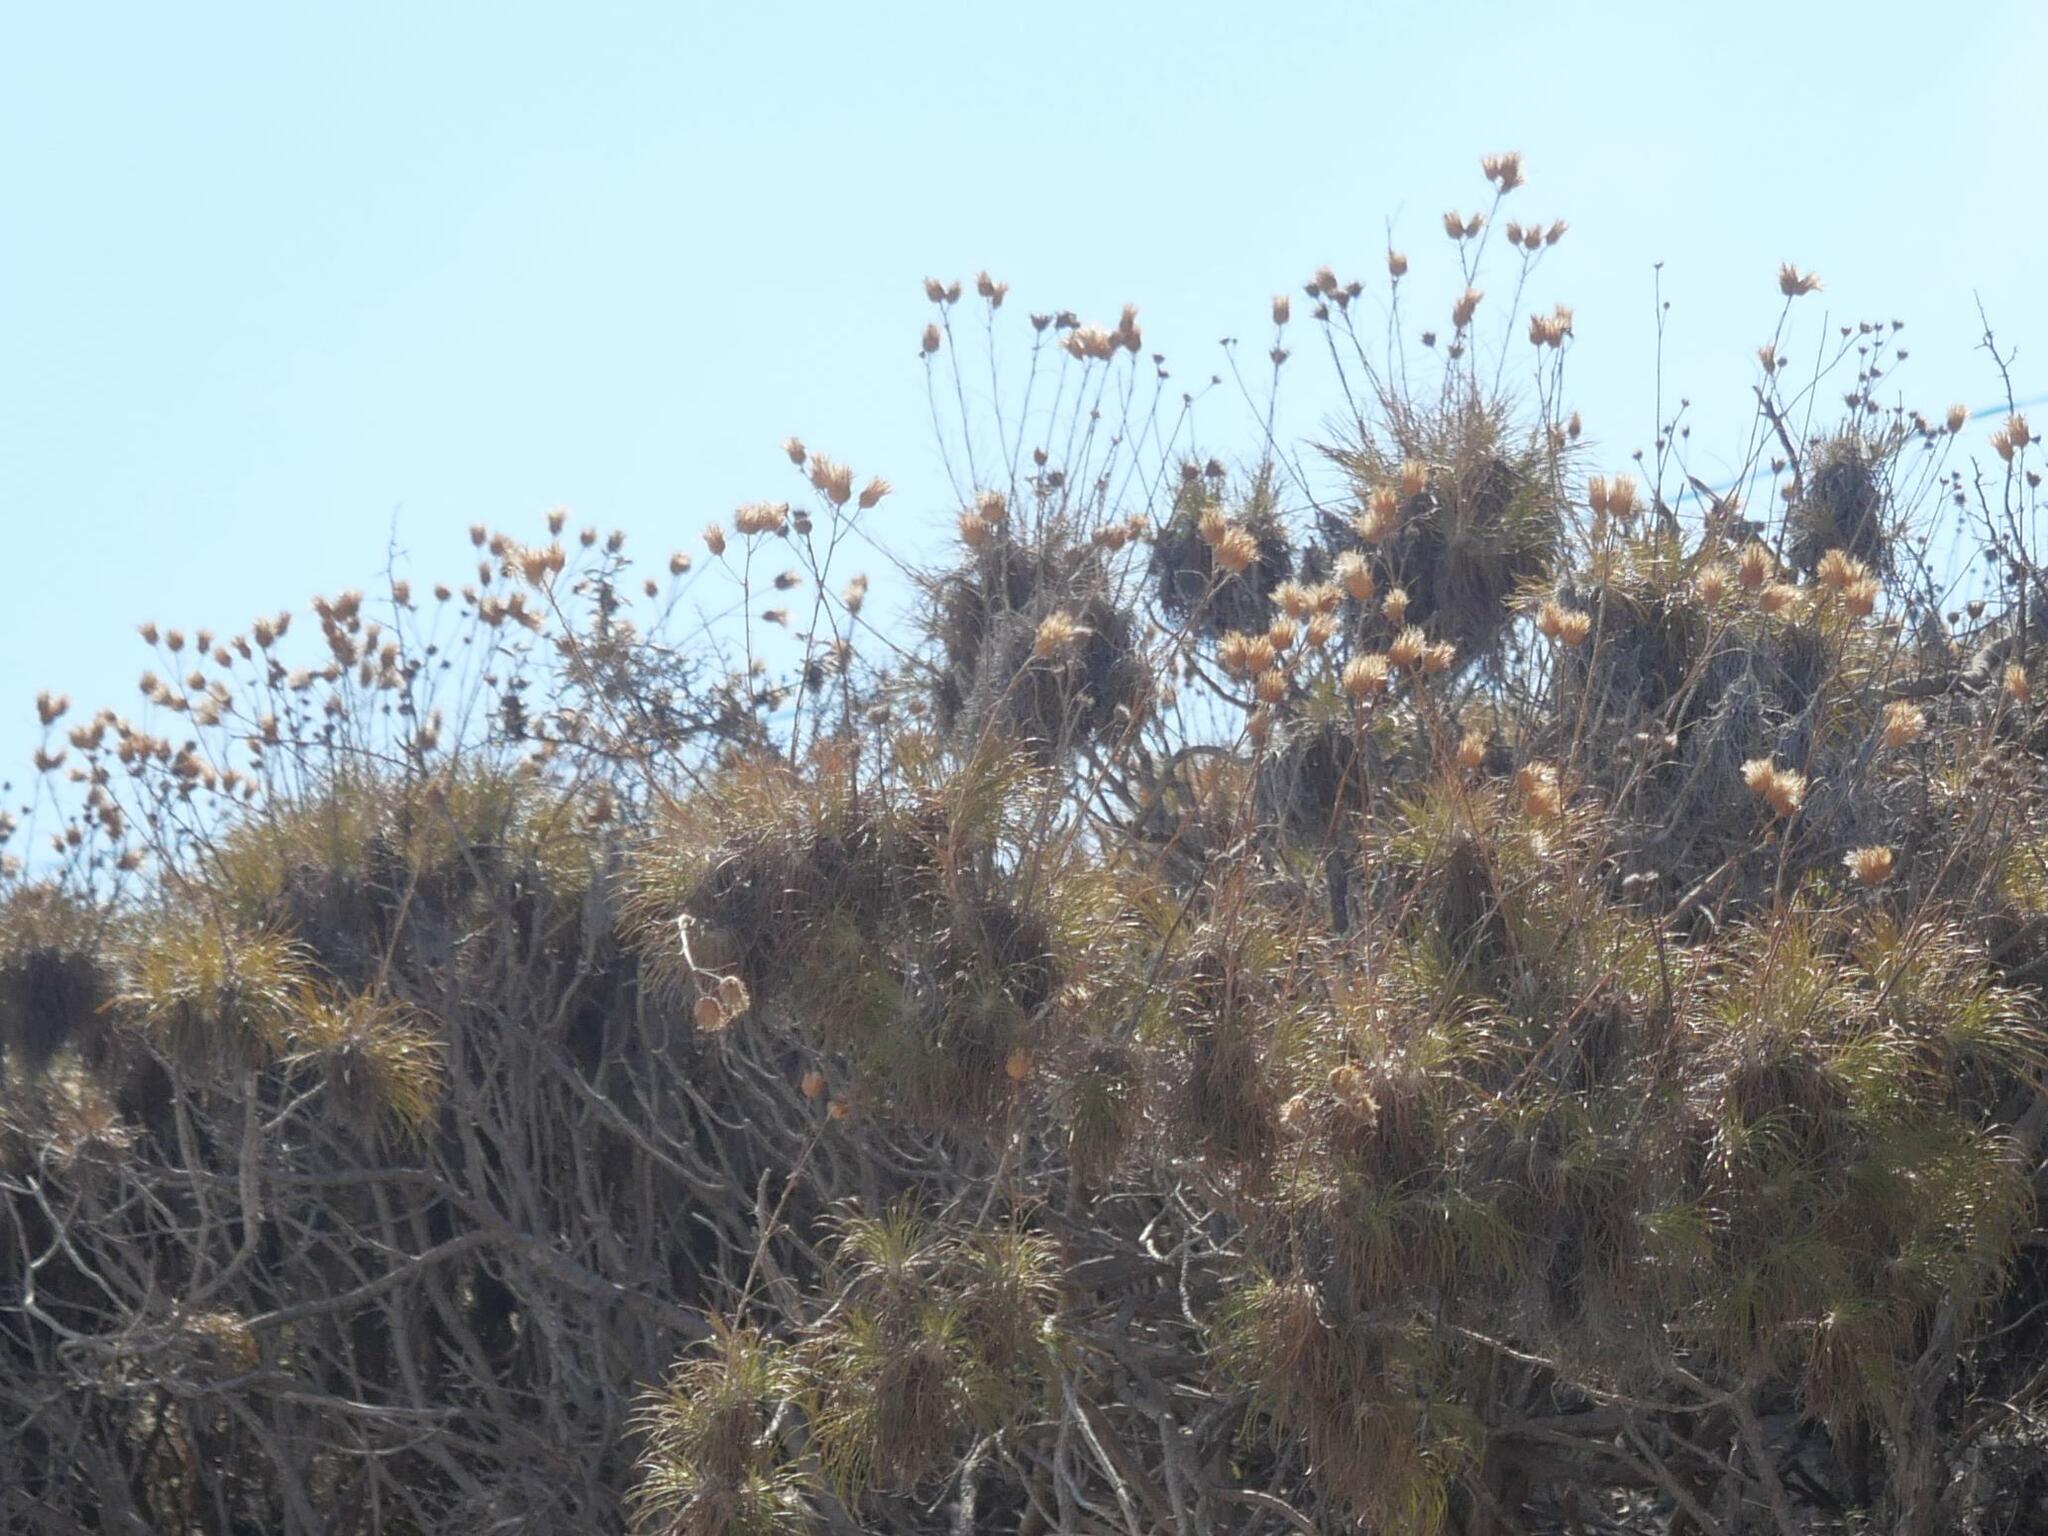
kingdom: Plantae
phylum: Tracheophyta
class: Magnoliopsida
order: Asterales
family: Asteraceae
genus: Ptilostemon
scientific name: Ptilostemon chamaepeuce
